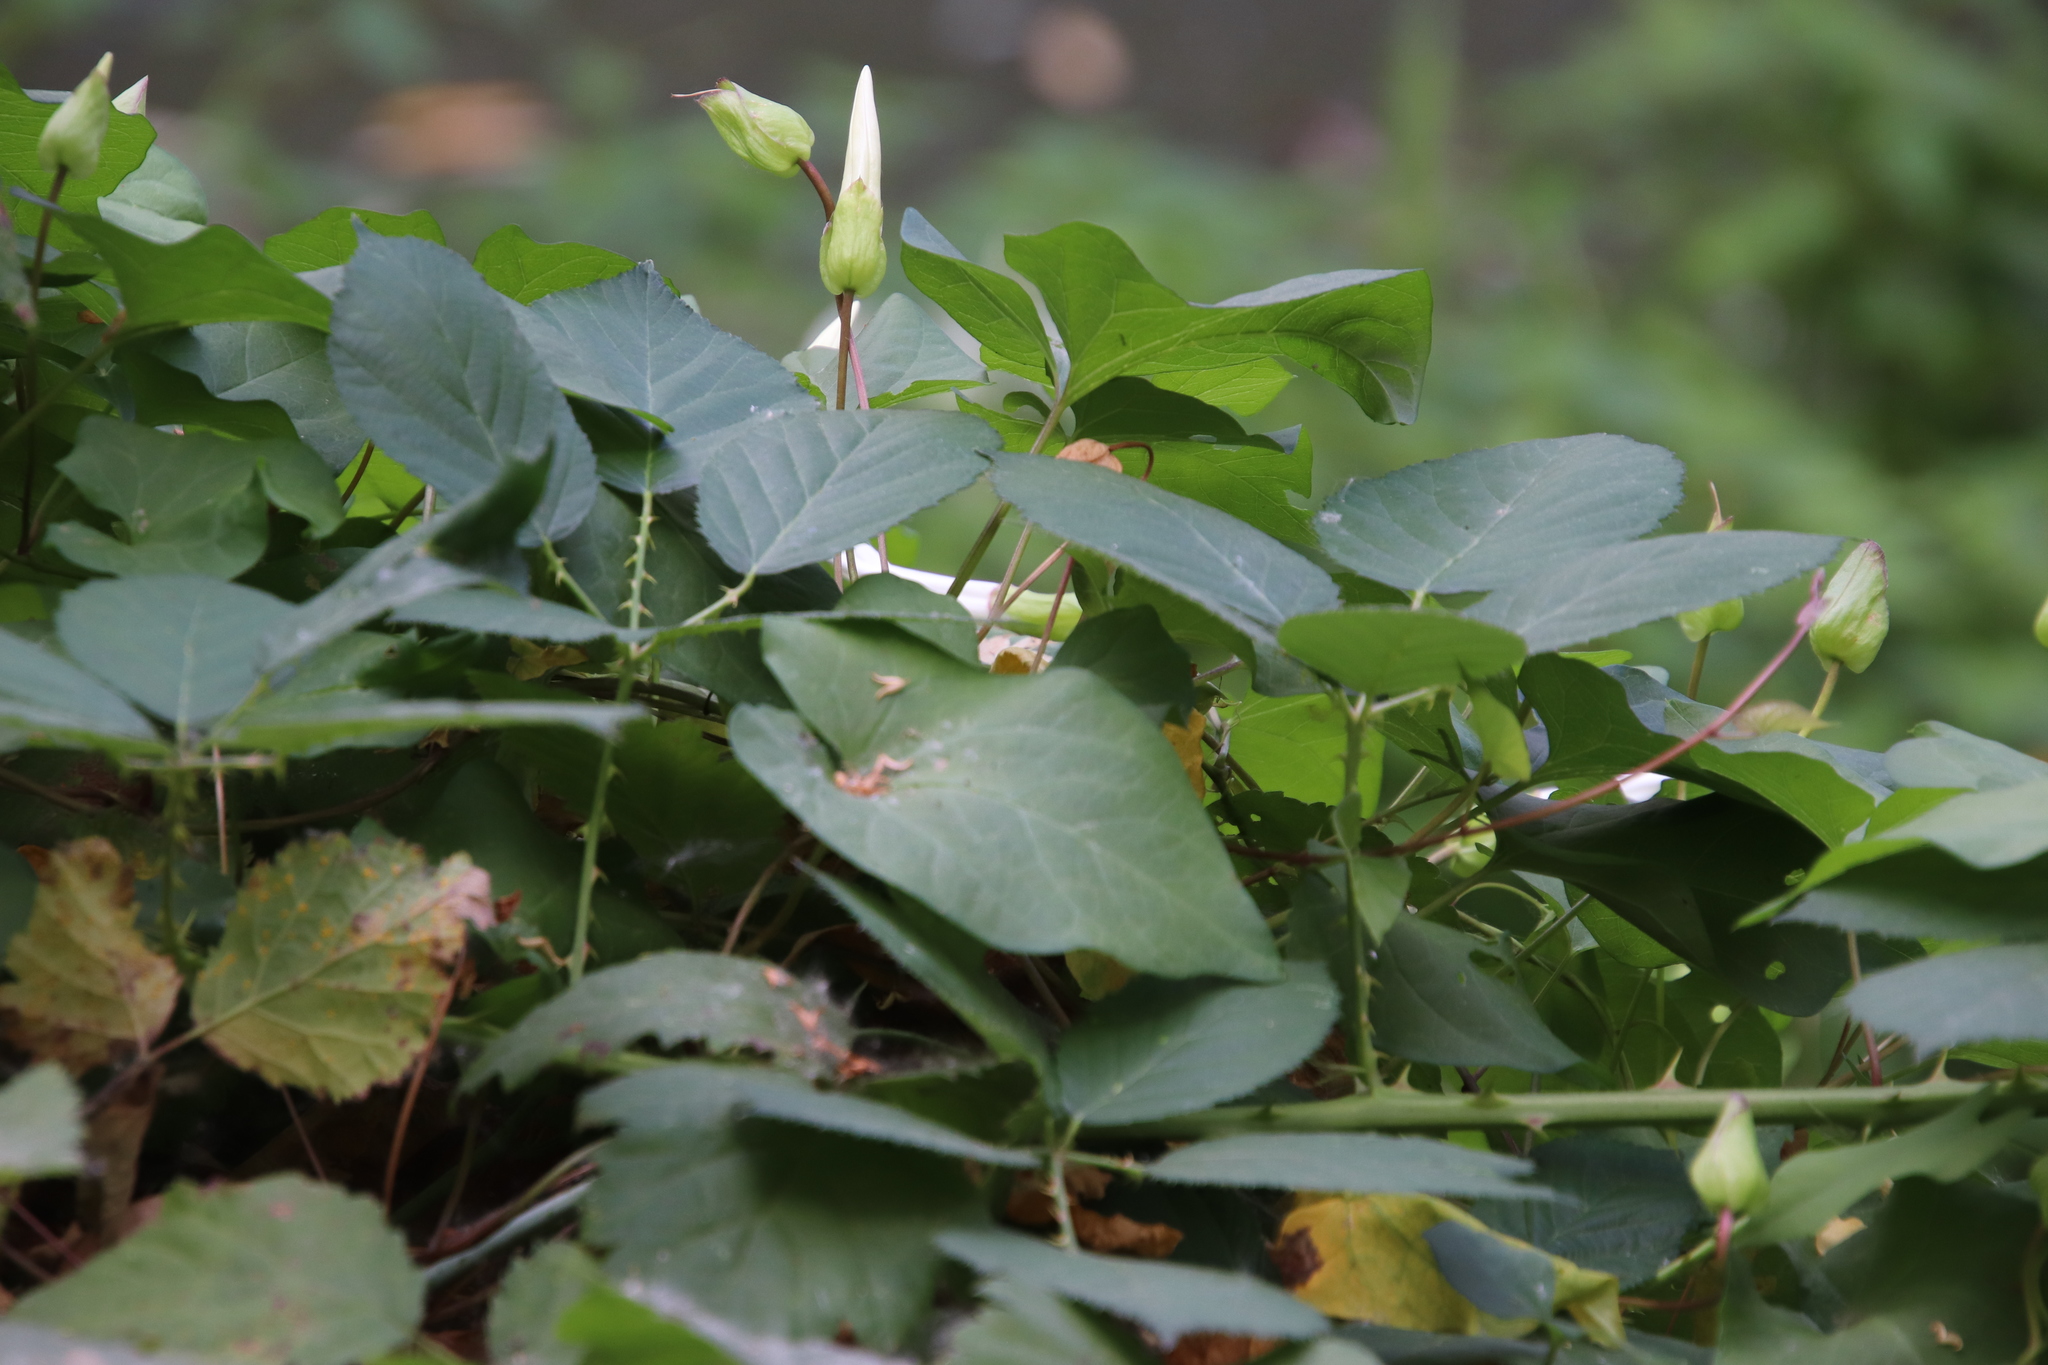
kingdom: Plantae
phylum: Tracheophyta
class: Magnoliopsida
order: Solanales
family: Convolvulaceae
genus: Calystegia
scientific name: Calystegia silvatica
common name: Large bindweed
